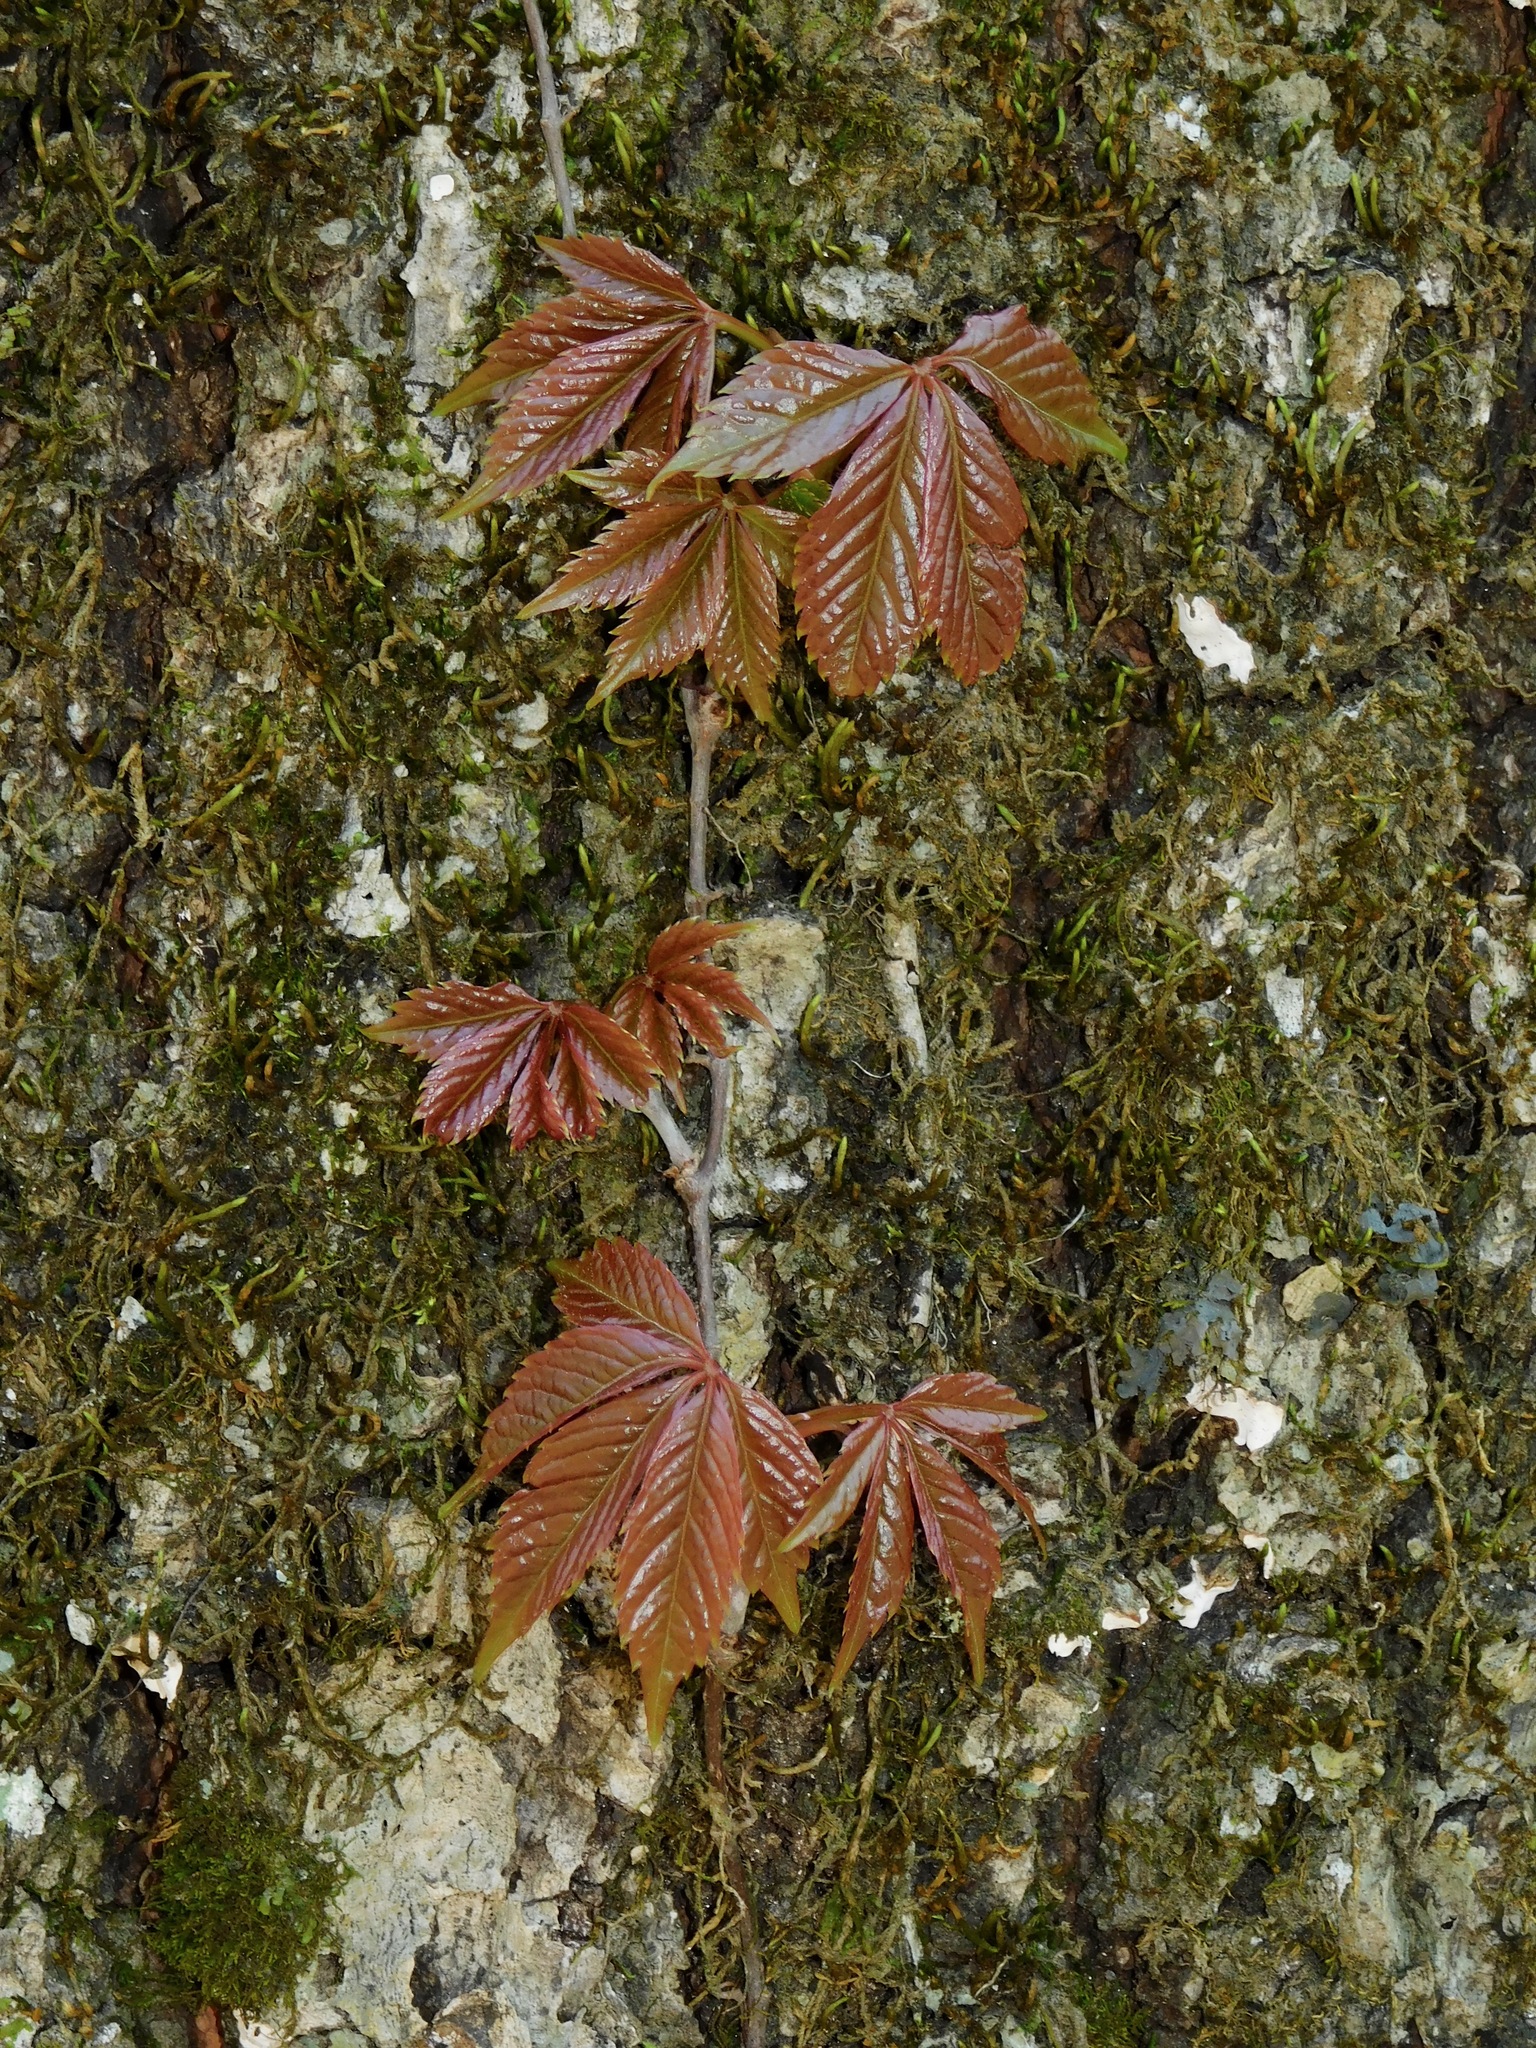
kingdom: Plantae
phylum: Tracheophyta
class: Magnoliopsida
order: Vitales
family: Vitaceae
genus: Parthenocissus
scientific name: Parthenocissus quinquefolia
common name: Virginia-creeper
